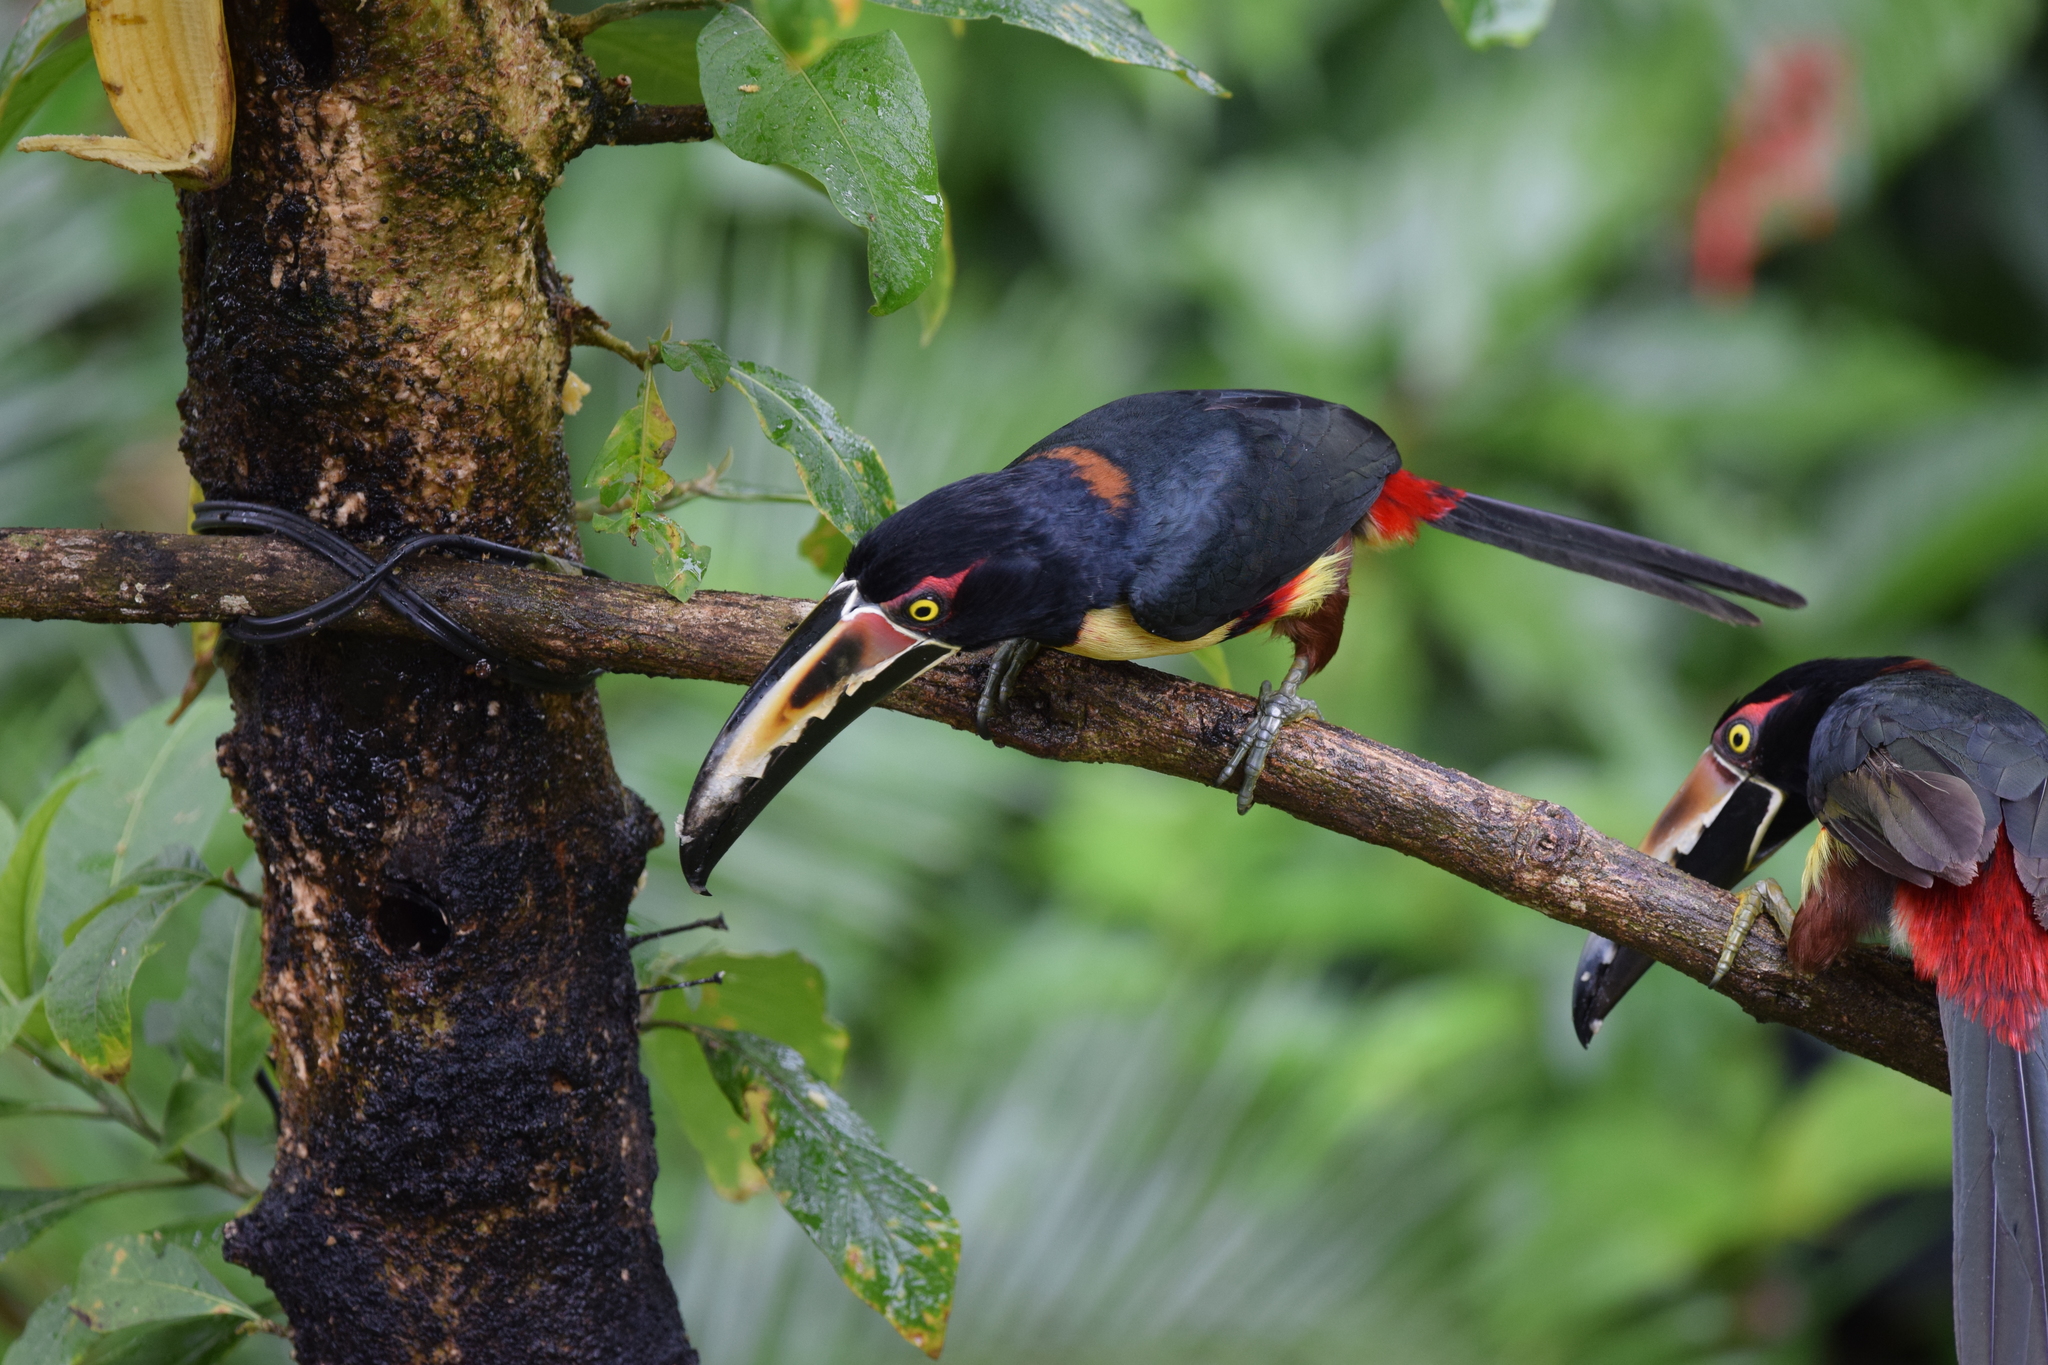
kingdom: Animalia
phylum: Chordata
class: Aves
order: Piciformes
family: Ramphastidae
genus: Pteroglossus
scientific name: Pteroglossus torquatus
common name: Collared aracari
